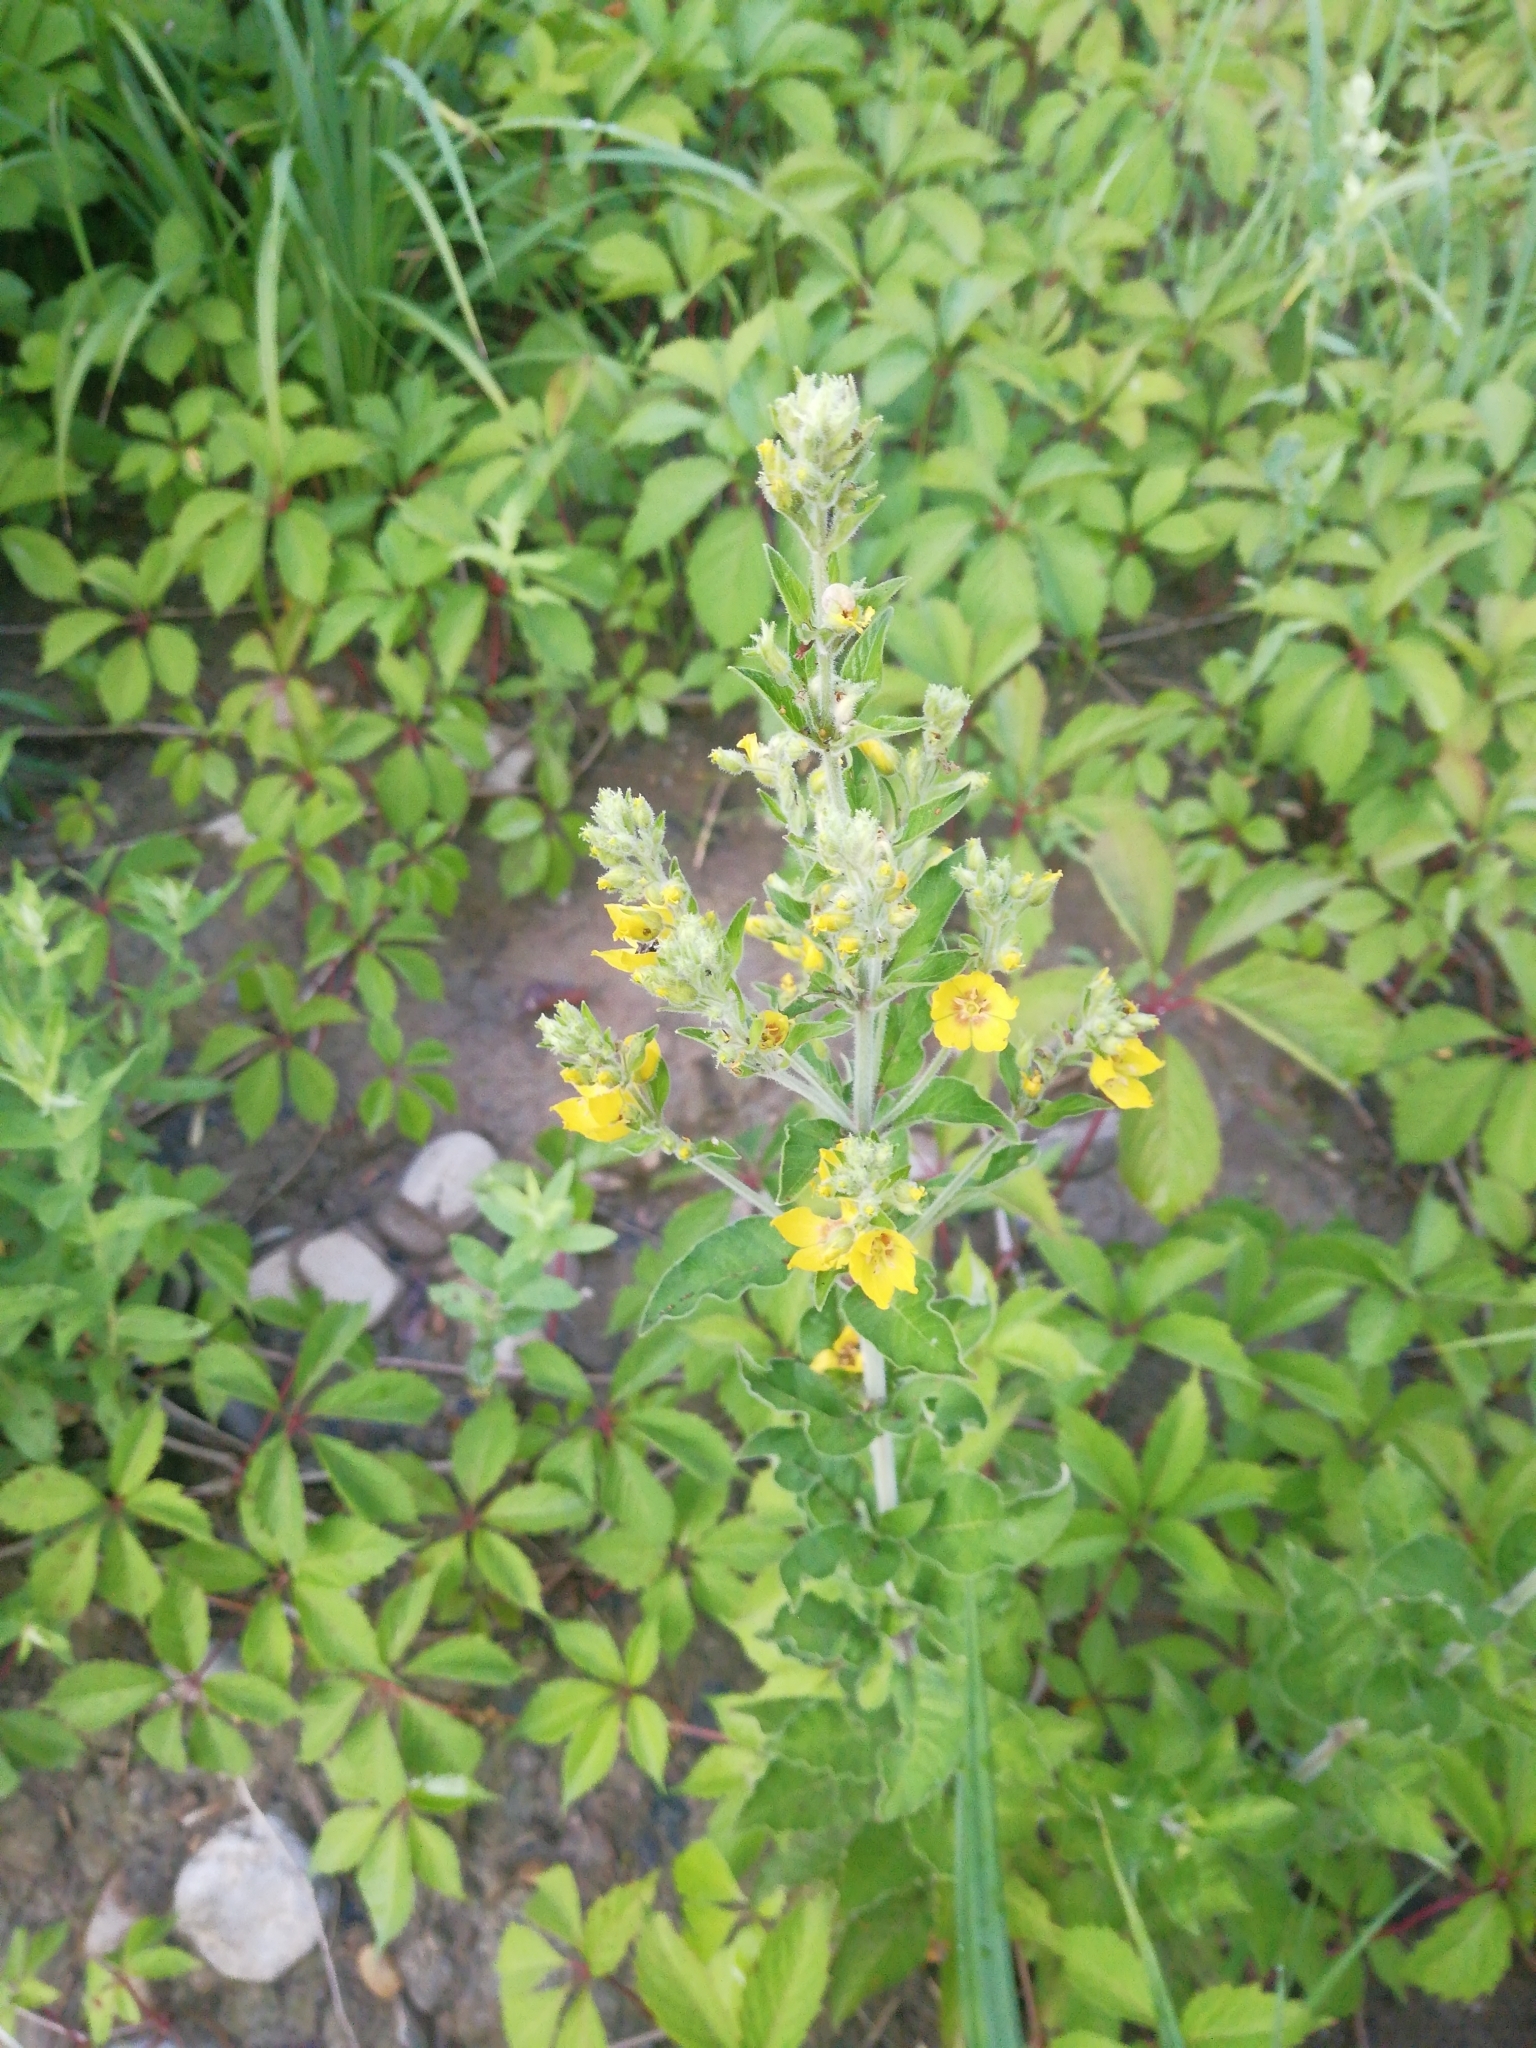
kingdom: Plantae
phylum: Tracheophyta
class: Magnoliopsida
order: Ericales
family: Primulaceae
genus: Lysimachia
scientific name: Lysimachia verticillaris
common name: Yellow loosestrife
